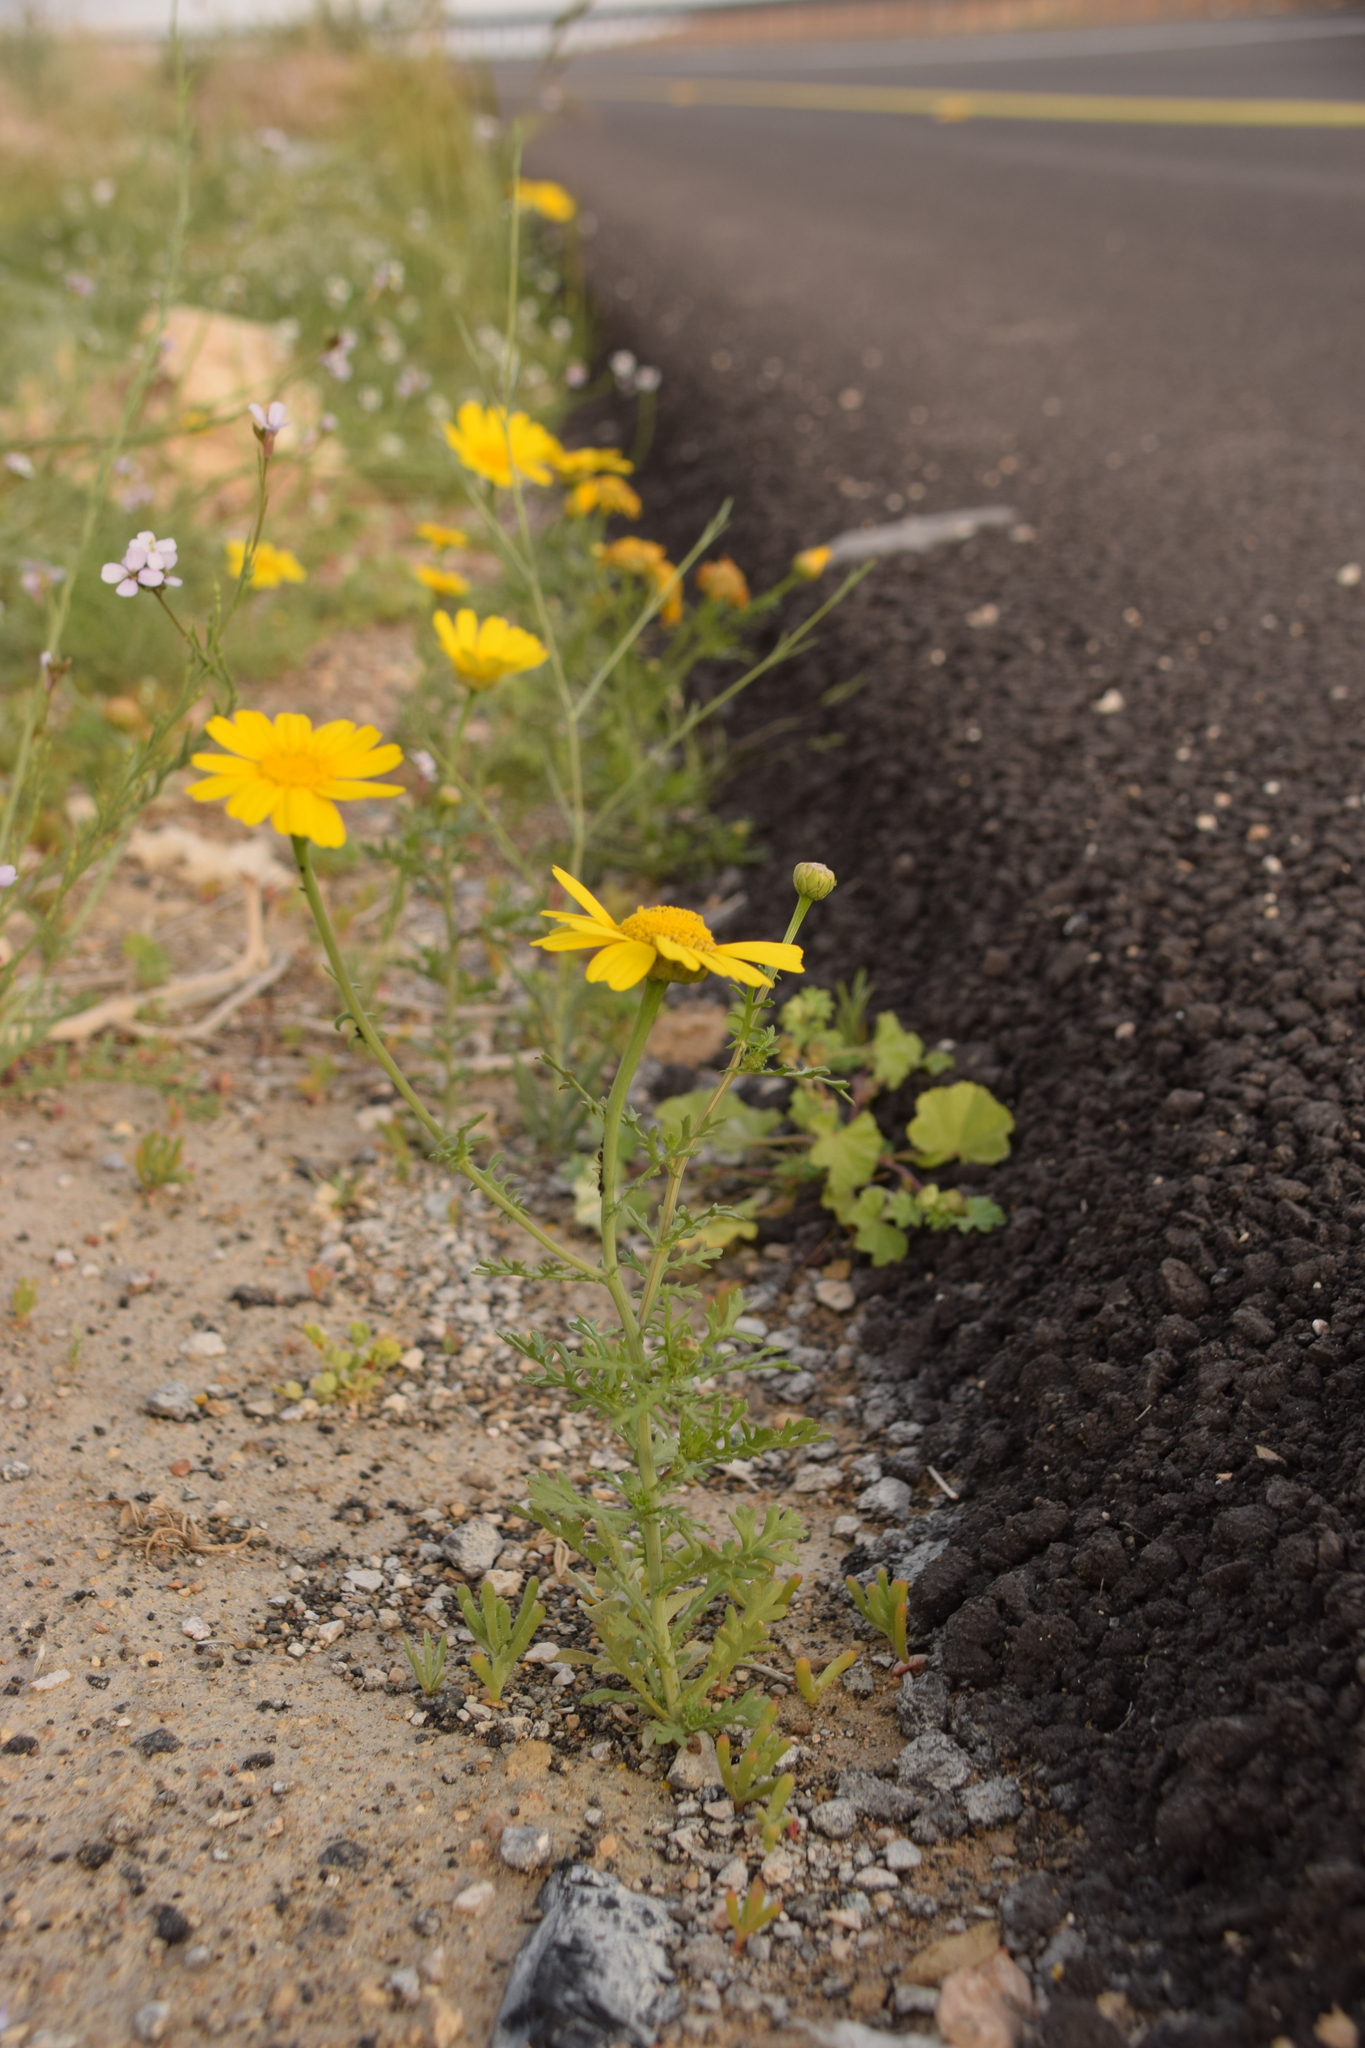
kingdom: Plantae
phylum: Tracheophyta
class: Magnoliopsida
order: Asterales
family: Asteraceae
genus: Glebionis
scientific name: Glebionis coronaria
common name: Crowndaisy
